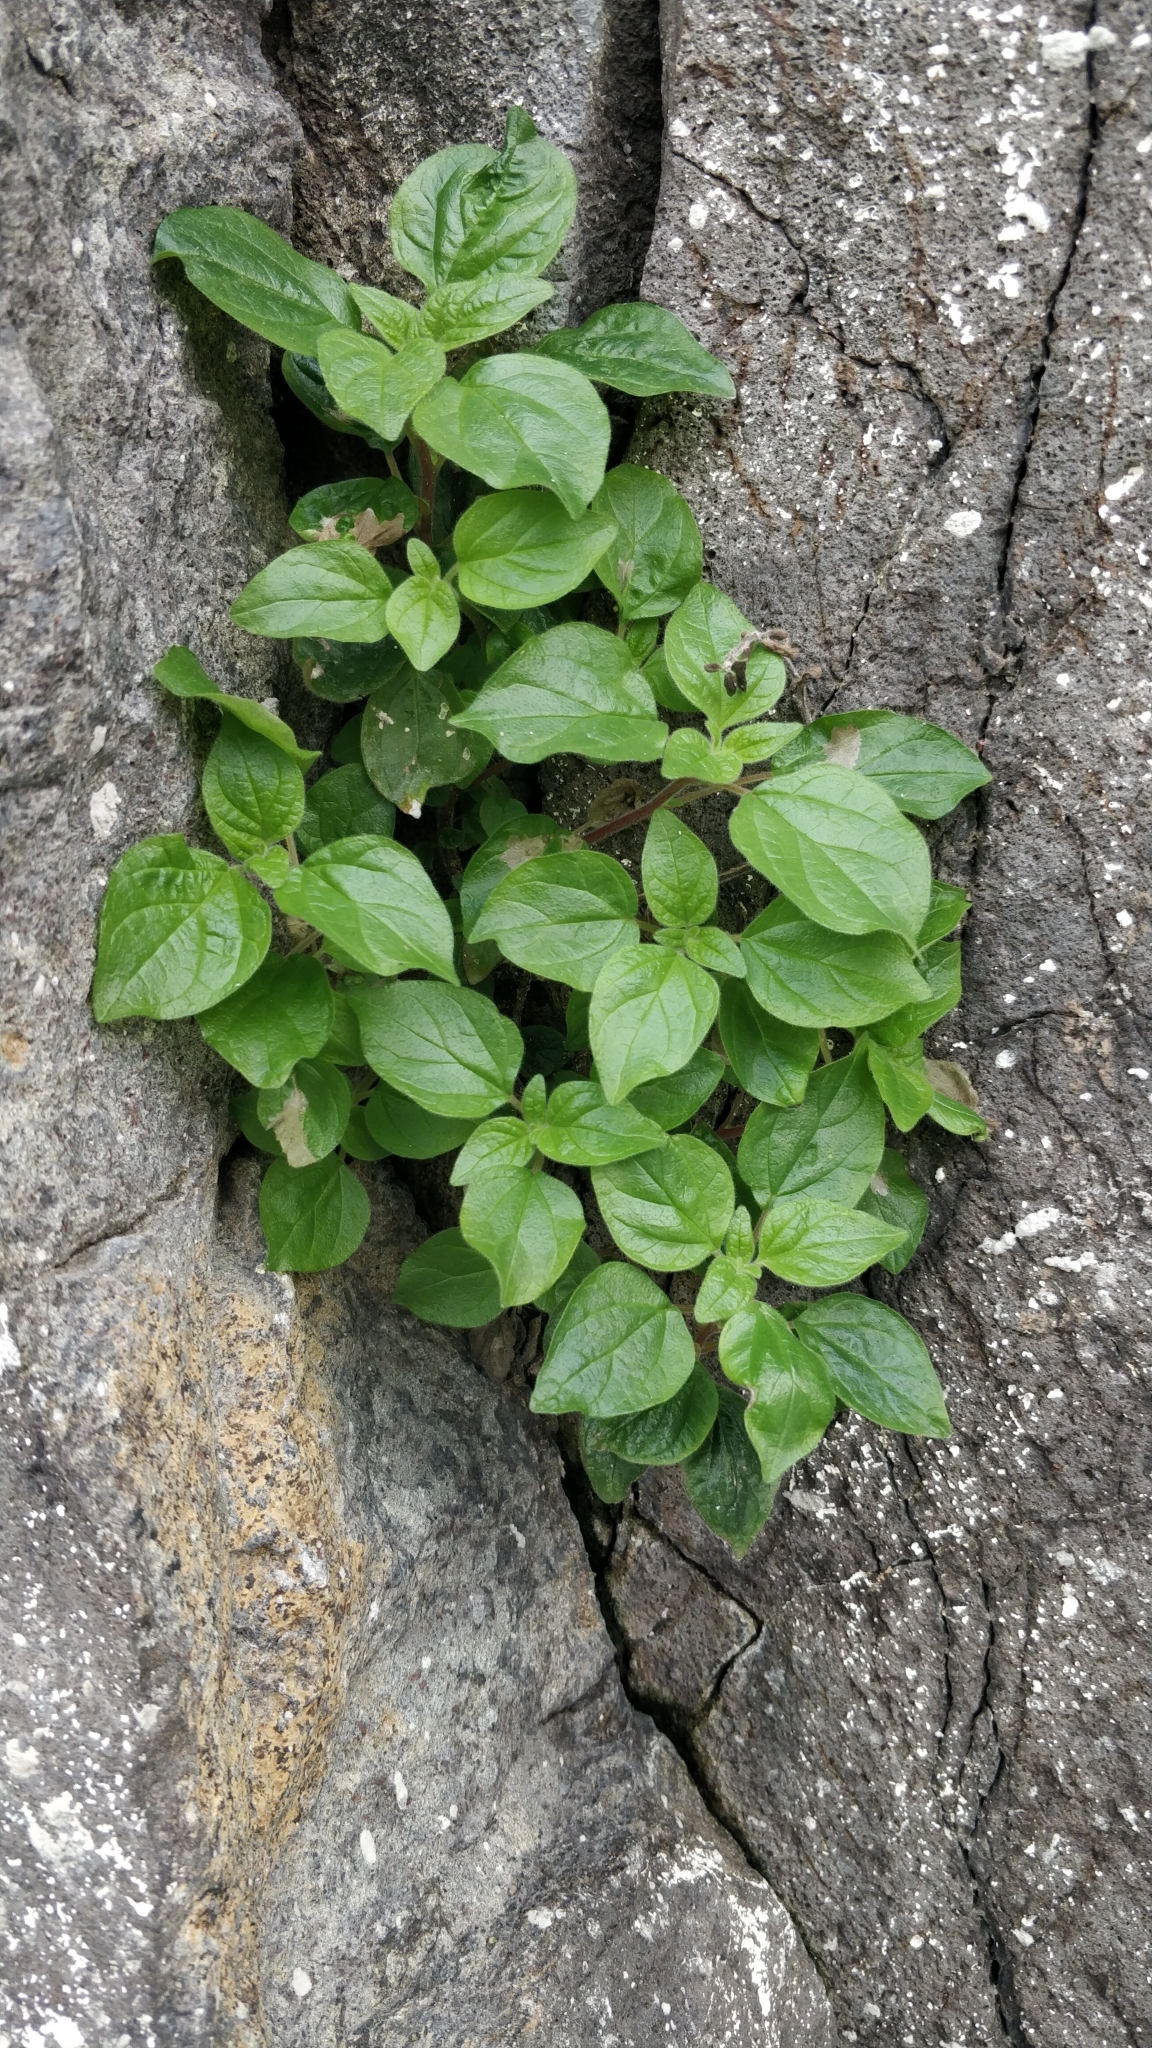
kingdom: Plantae
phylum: Tracheophyta
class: Magnoliopsida
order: Rosales
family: Urticaceae
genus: Parietaria
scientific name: Parietaria judaica
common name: Pellitory-of-the-wall
